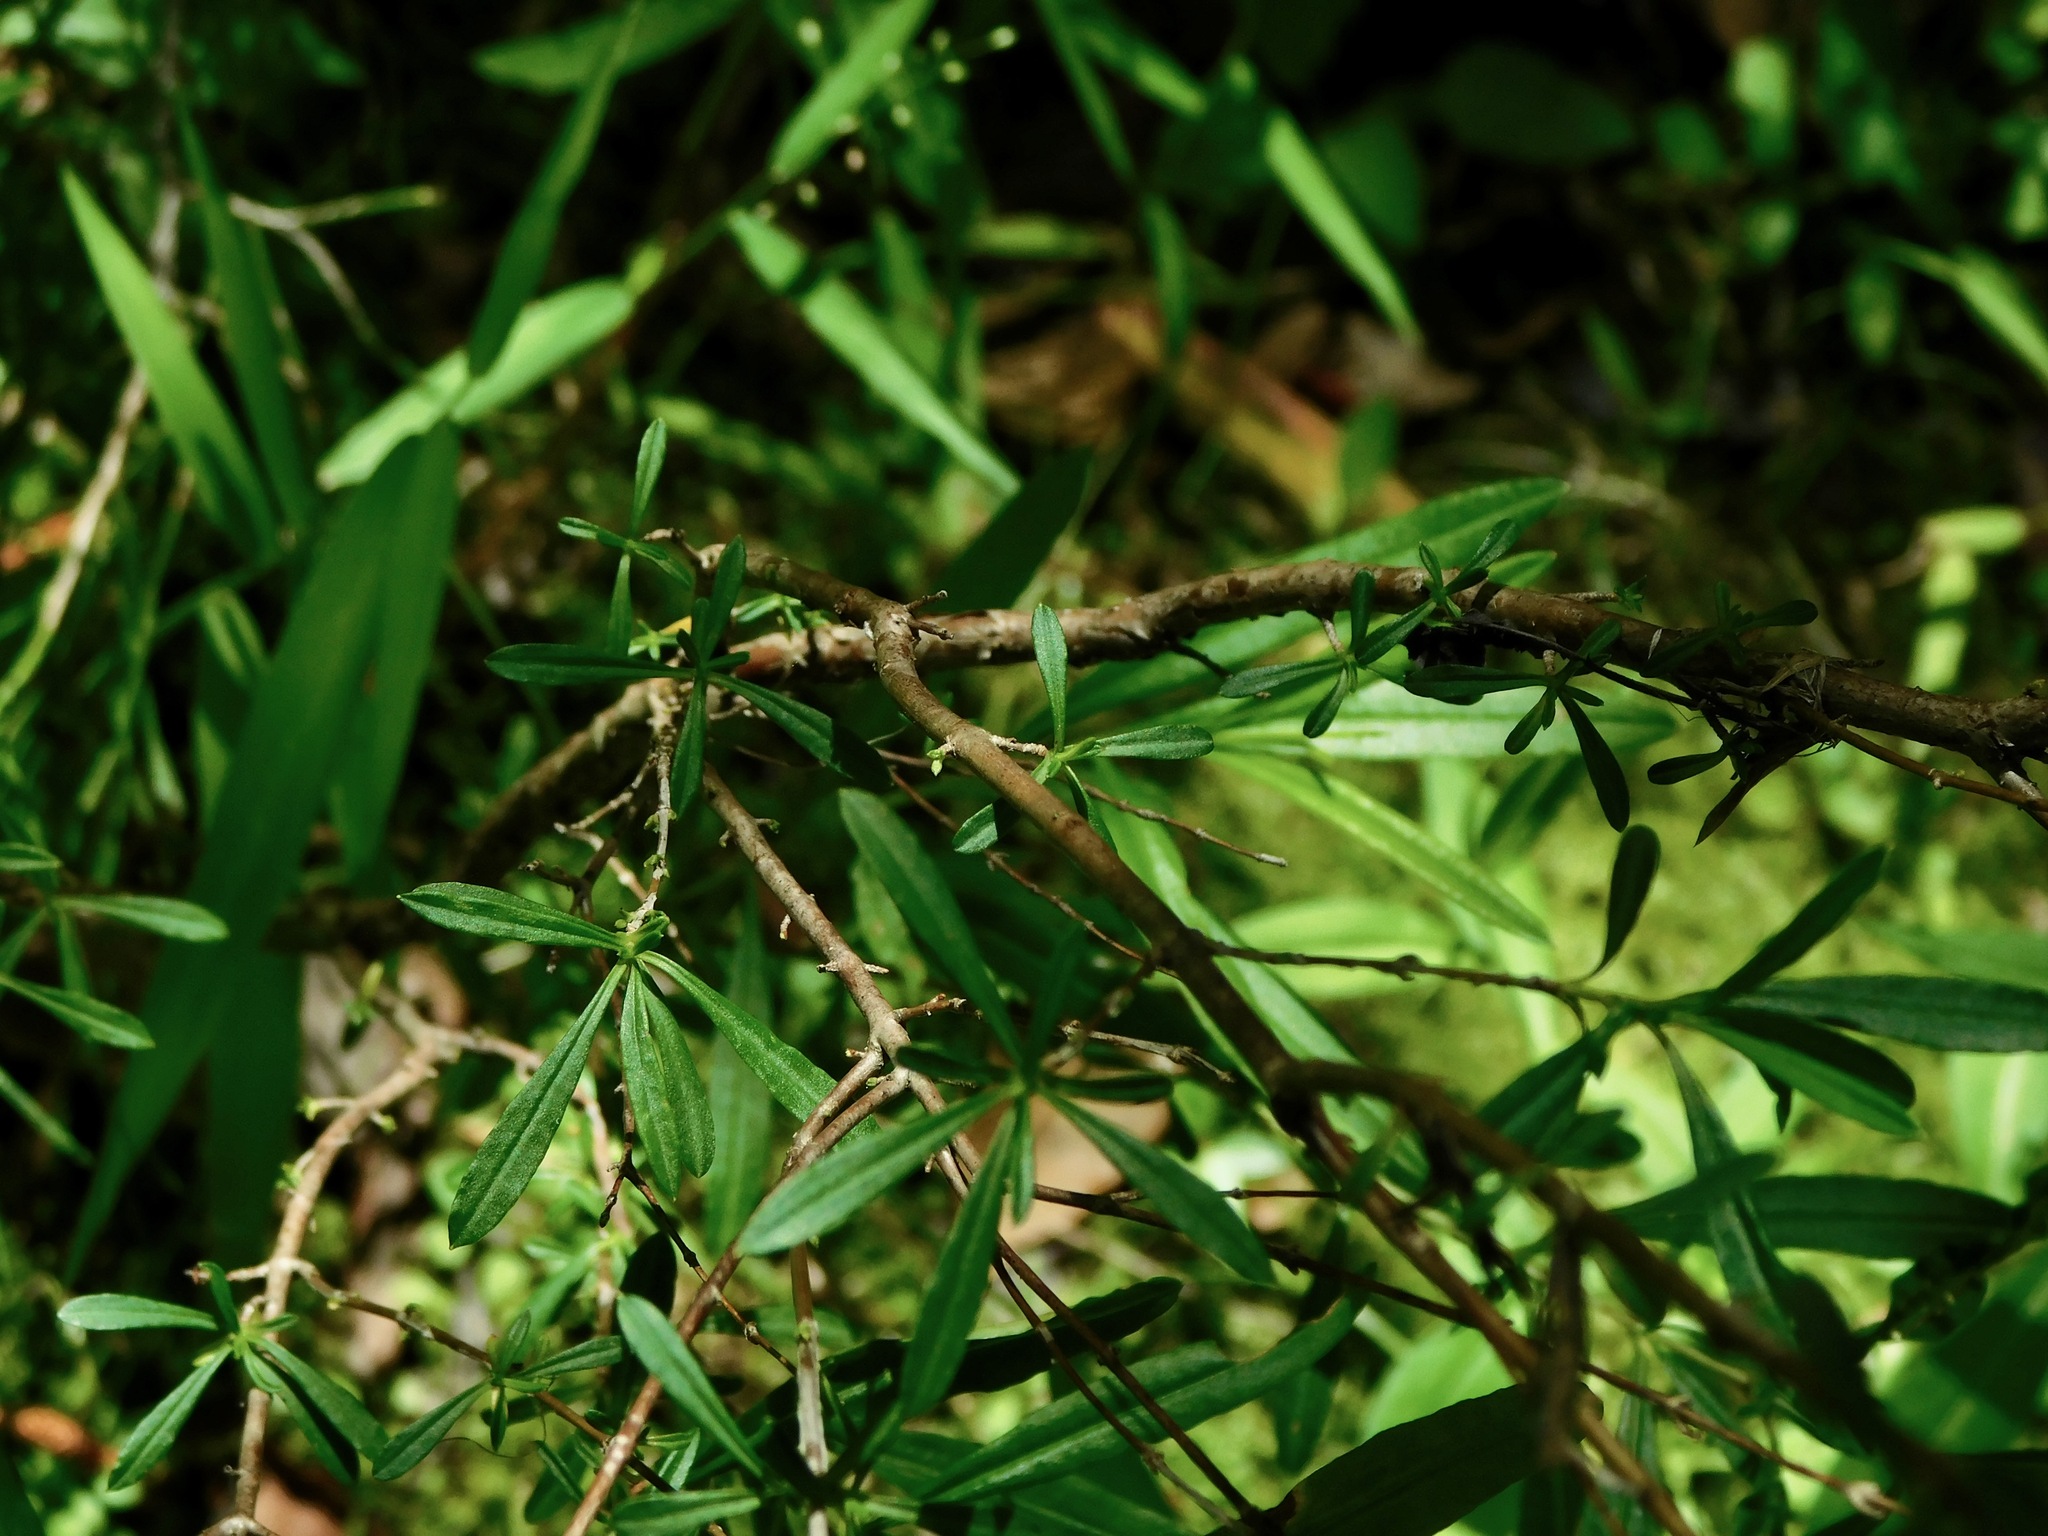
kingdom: Plantae
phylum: Tracheophyta
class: Magnoliopsida
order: Malpighiales
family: Hypericaceae
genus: Hypericum
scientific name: Hypericum prolificum
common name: Shrubby st. john's-wort
